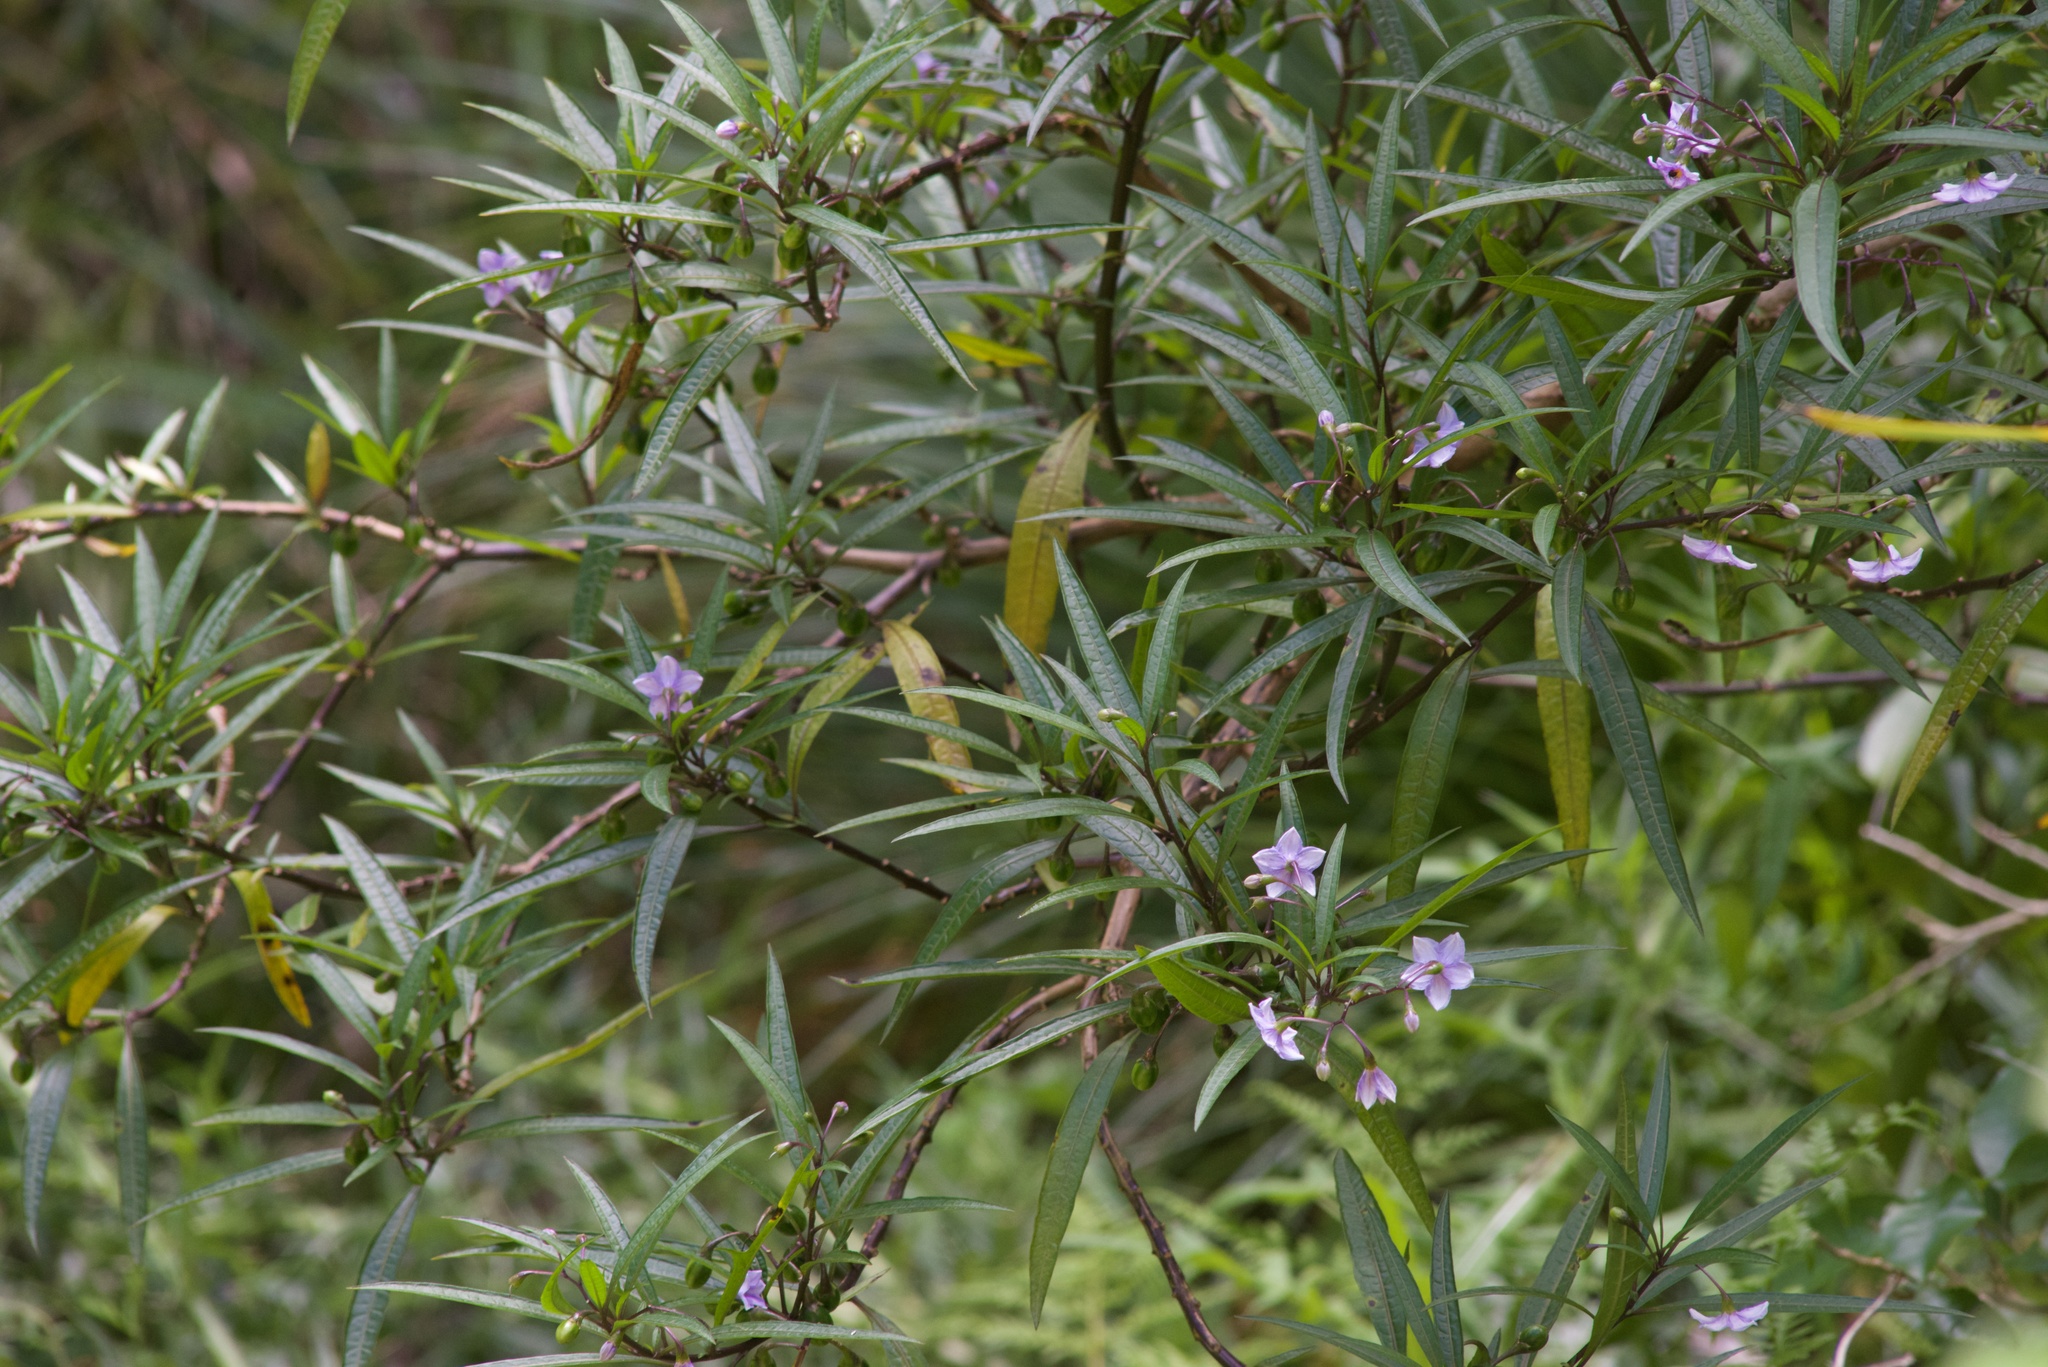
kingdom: Plantae
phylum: Tracheophyta
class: Magnoliopsida
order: Solanales
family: Solanaceae
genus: Solanum
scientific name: Solanum aviculare
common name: New zealand nightshade
